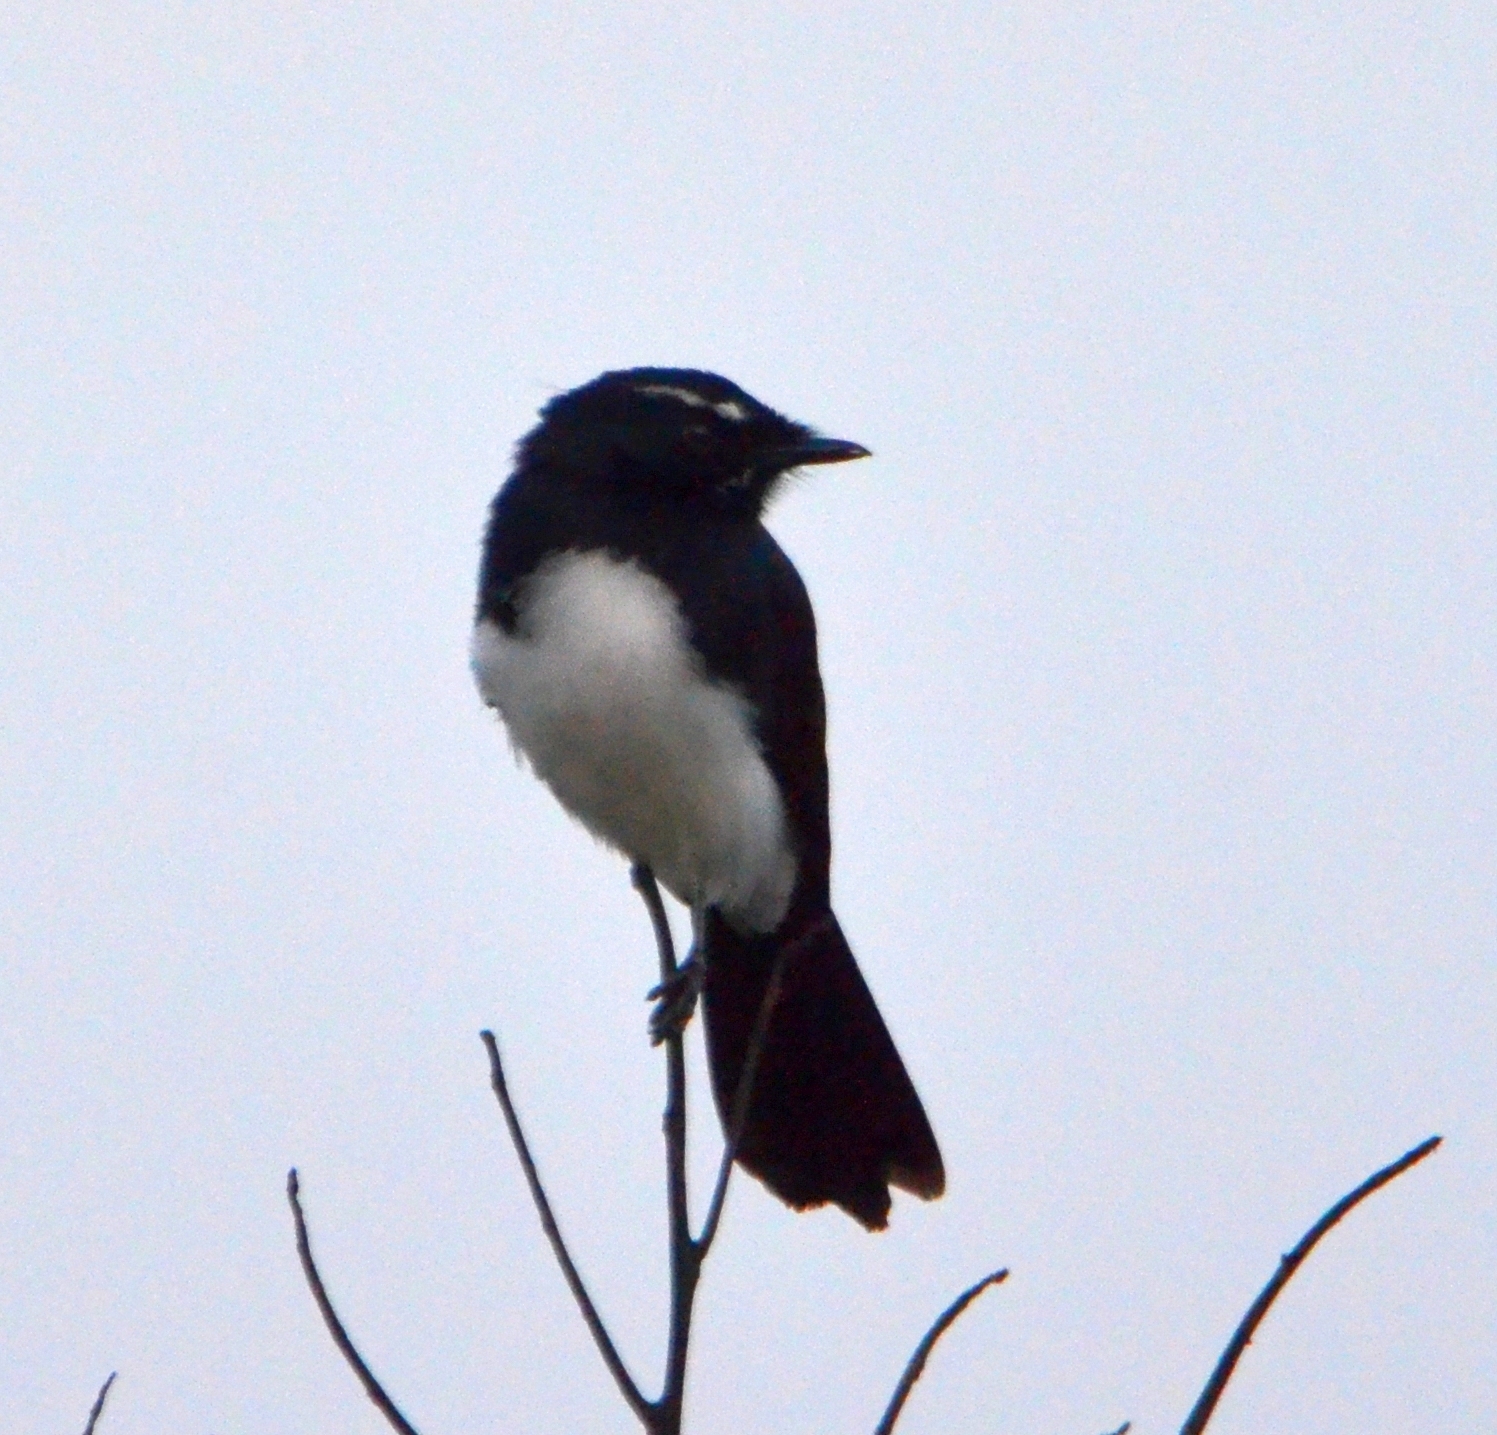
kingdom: Animalia
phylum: Chordata
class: Aves
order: Passeriformes
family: Rhipiduridae
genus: Rhipidura
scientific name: Rhipidura leucophrys
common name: Willie wagtail
